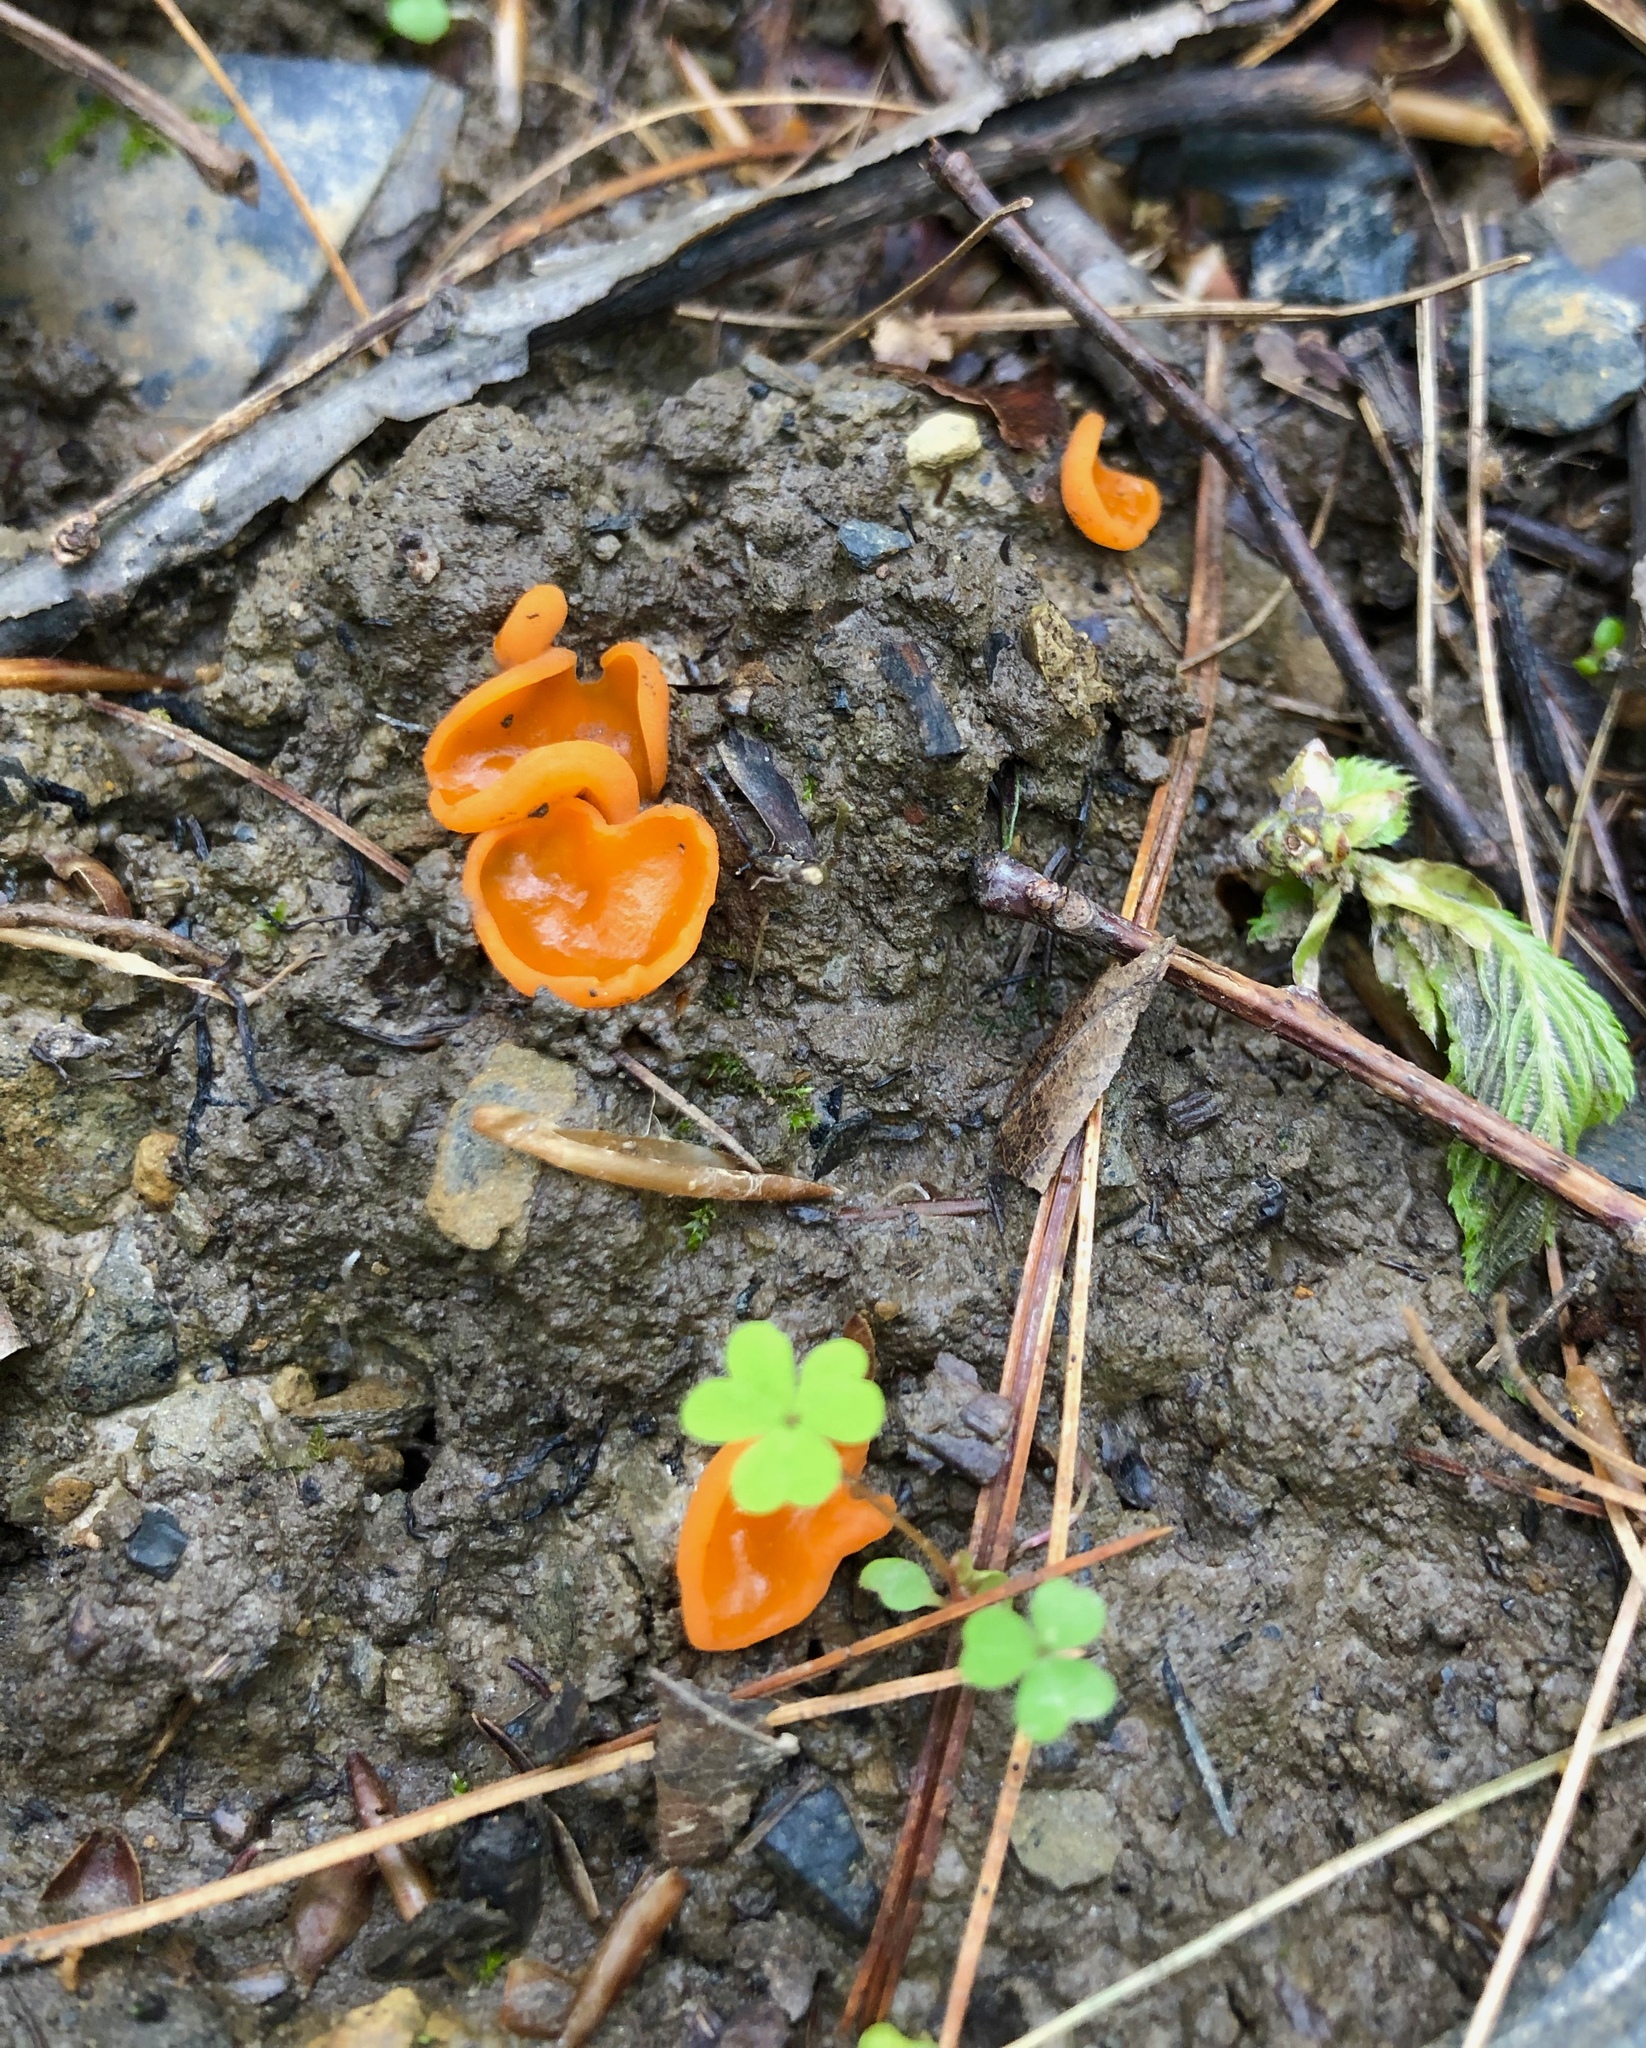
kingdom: Fungi
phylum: Ascomycota
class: Pezizomycetes
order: Pezizales
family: Pyronemataceae
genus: Aleuria
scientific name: Aleuria aurantia
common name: Orange peel fungus
